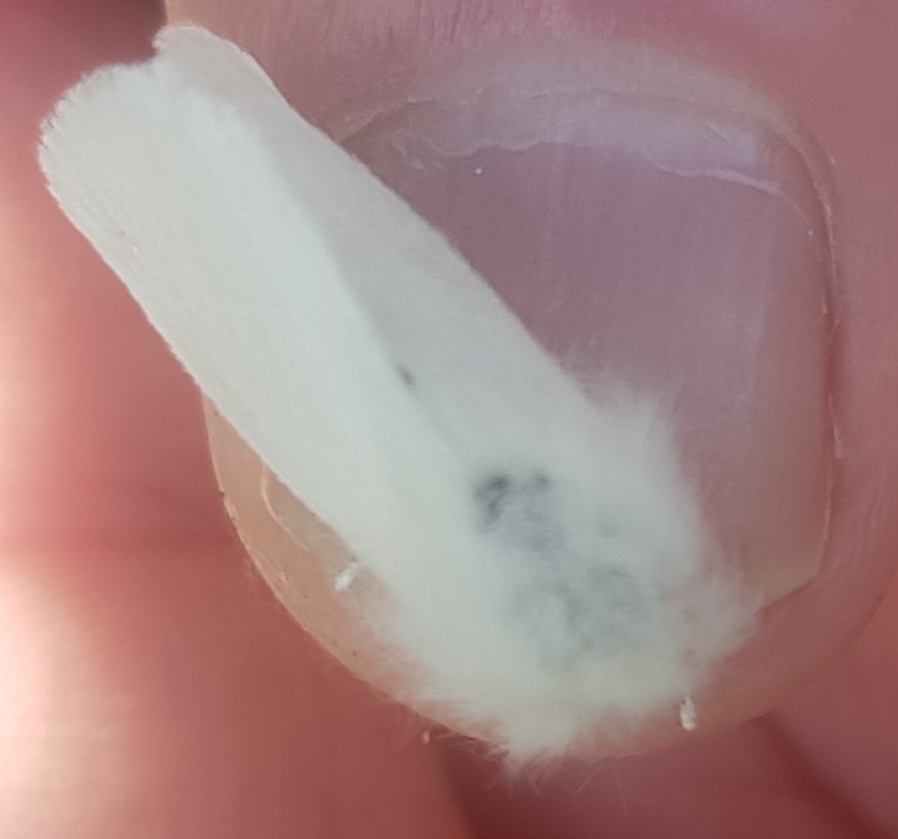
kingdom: Animalia
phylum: Arthropoda
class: Insecta
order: Lepidoptera
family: Erebidae
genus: Euproctis
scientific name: Euproctis chrysorrhoea
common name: Brown-tail
